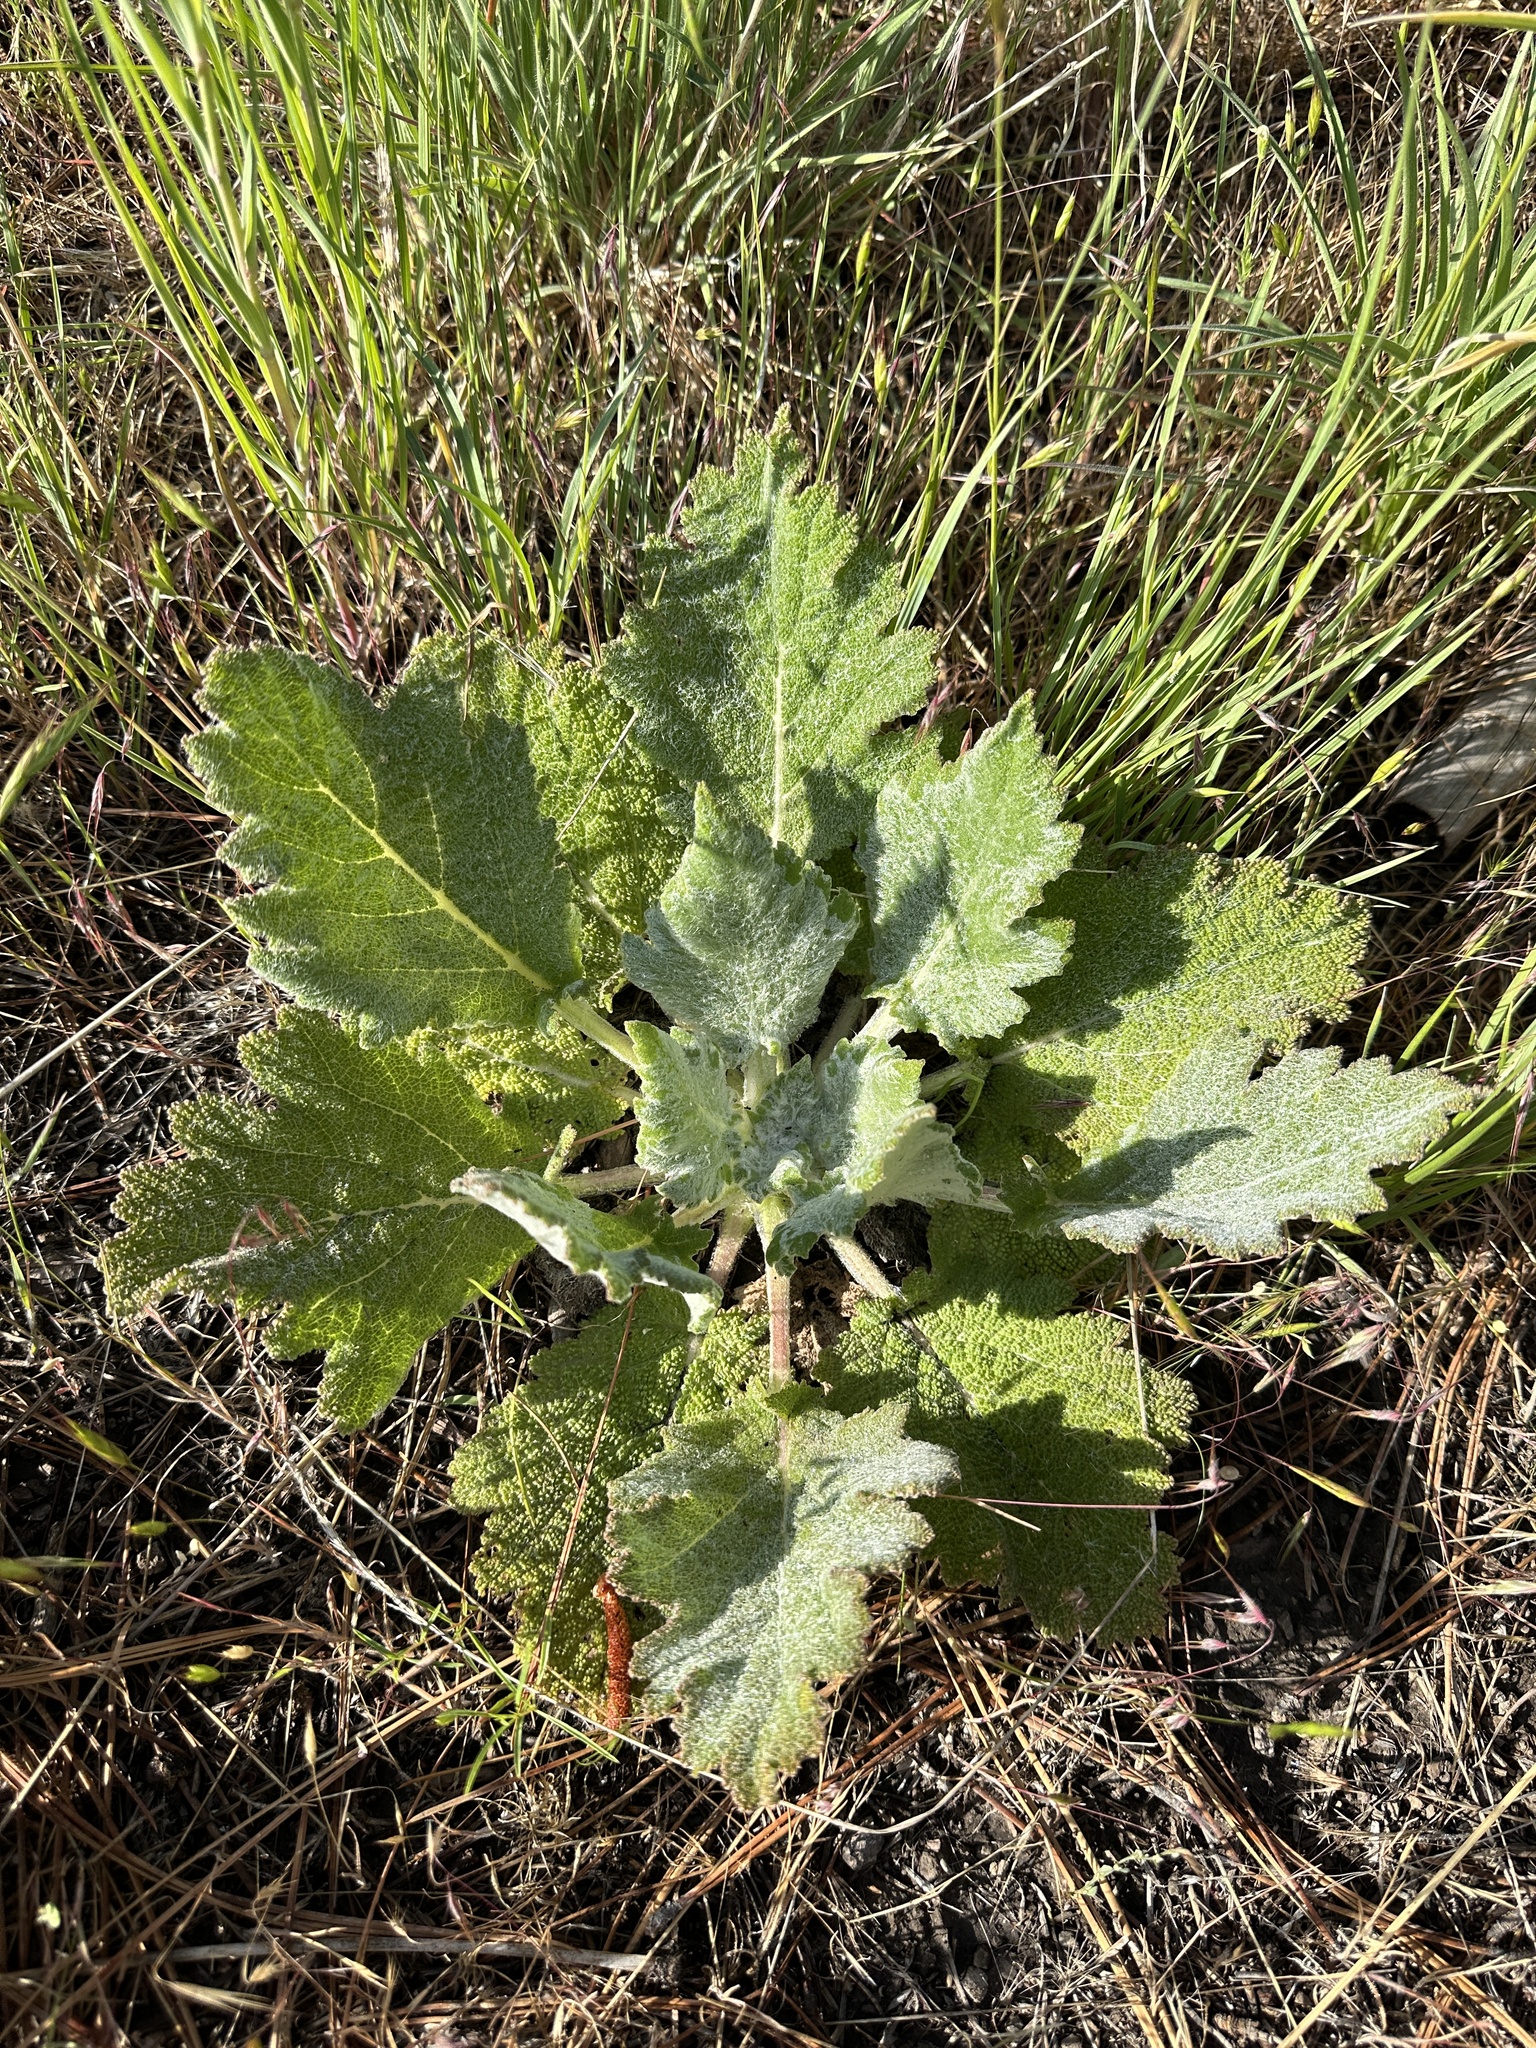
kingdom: Plantae
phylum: Tracheophyta
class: Magnoliopsida
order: Lamiales
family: Lamiaceae
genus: Salvia
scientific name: Salvia aethiopis
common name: Mediterranean sage
